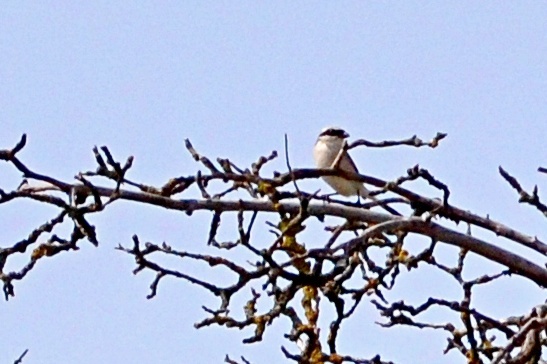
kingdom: Animalia
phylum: Chordata
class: Aves
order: Passeriformes
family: Laniidae
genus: Lanius
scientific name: Lanius collurio
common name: Red-backed shrike
